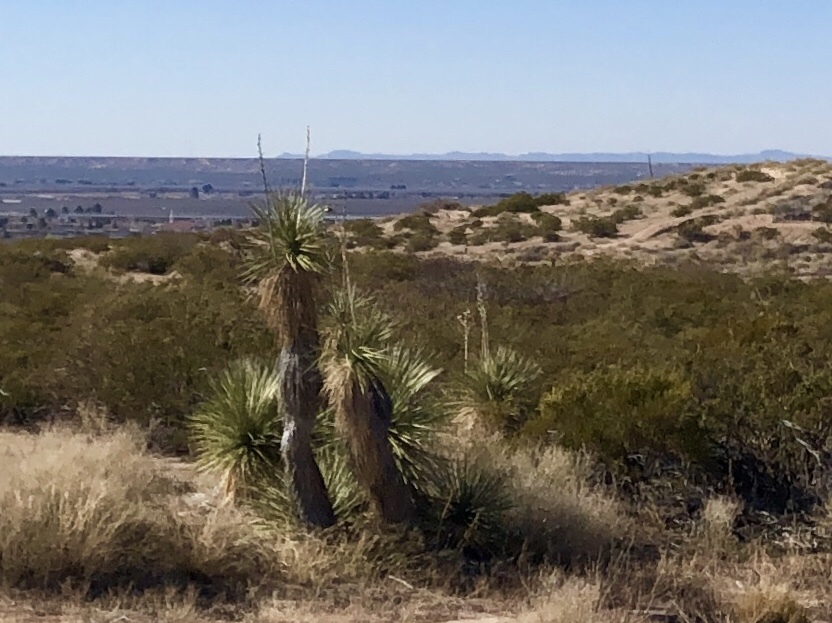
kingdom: Plantae
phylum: Tracheophyta
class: Liliopsida
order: Asparagales
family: Asparagaceae
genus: Yucca
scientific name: Yucca elata
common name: Palmella
